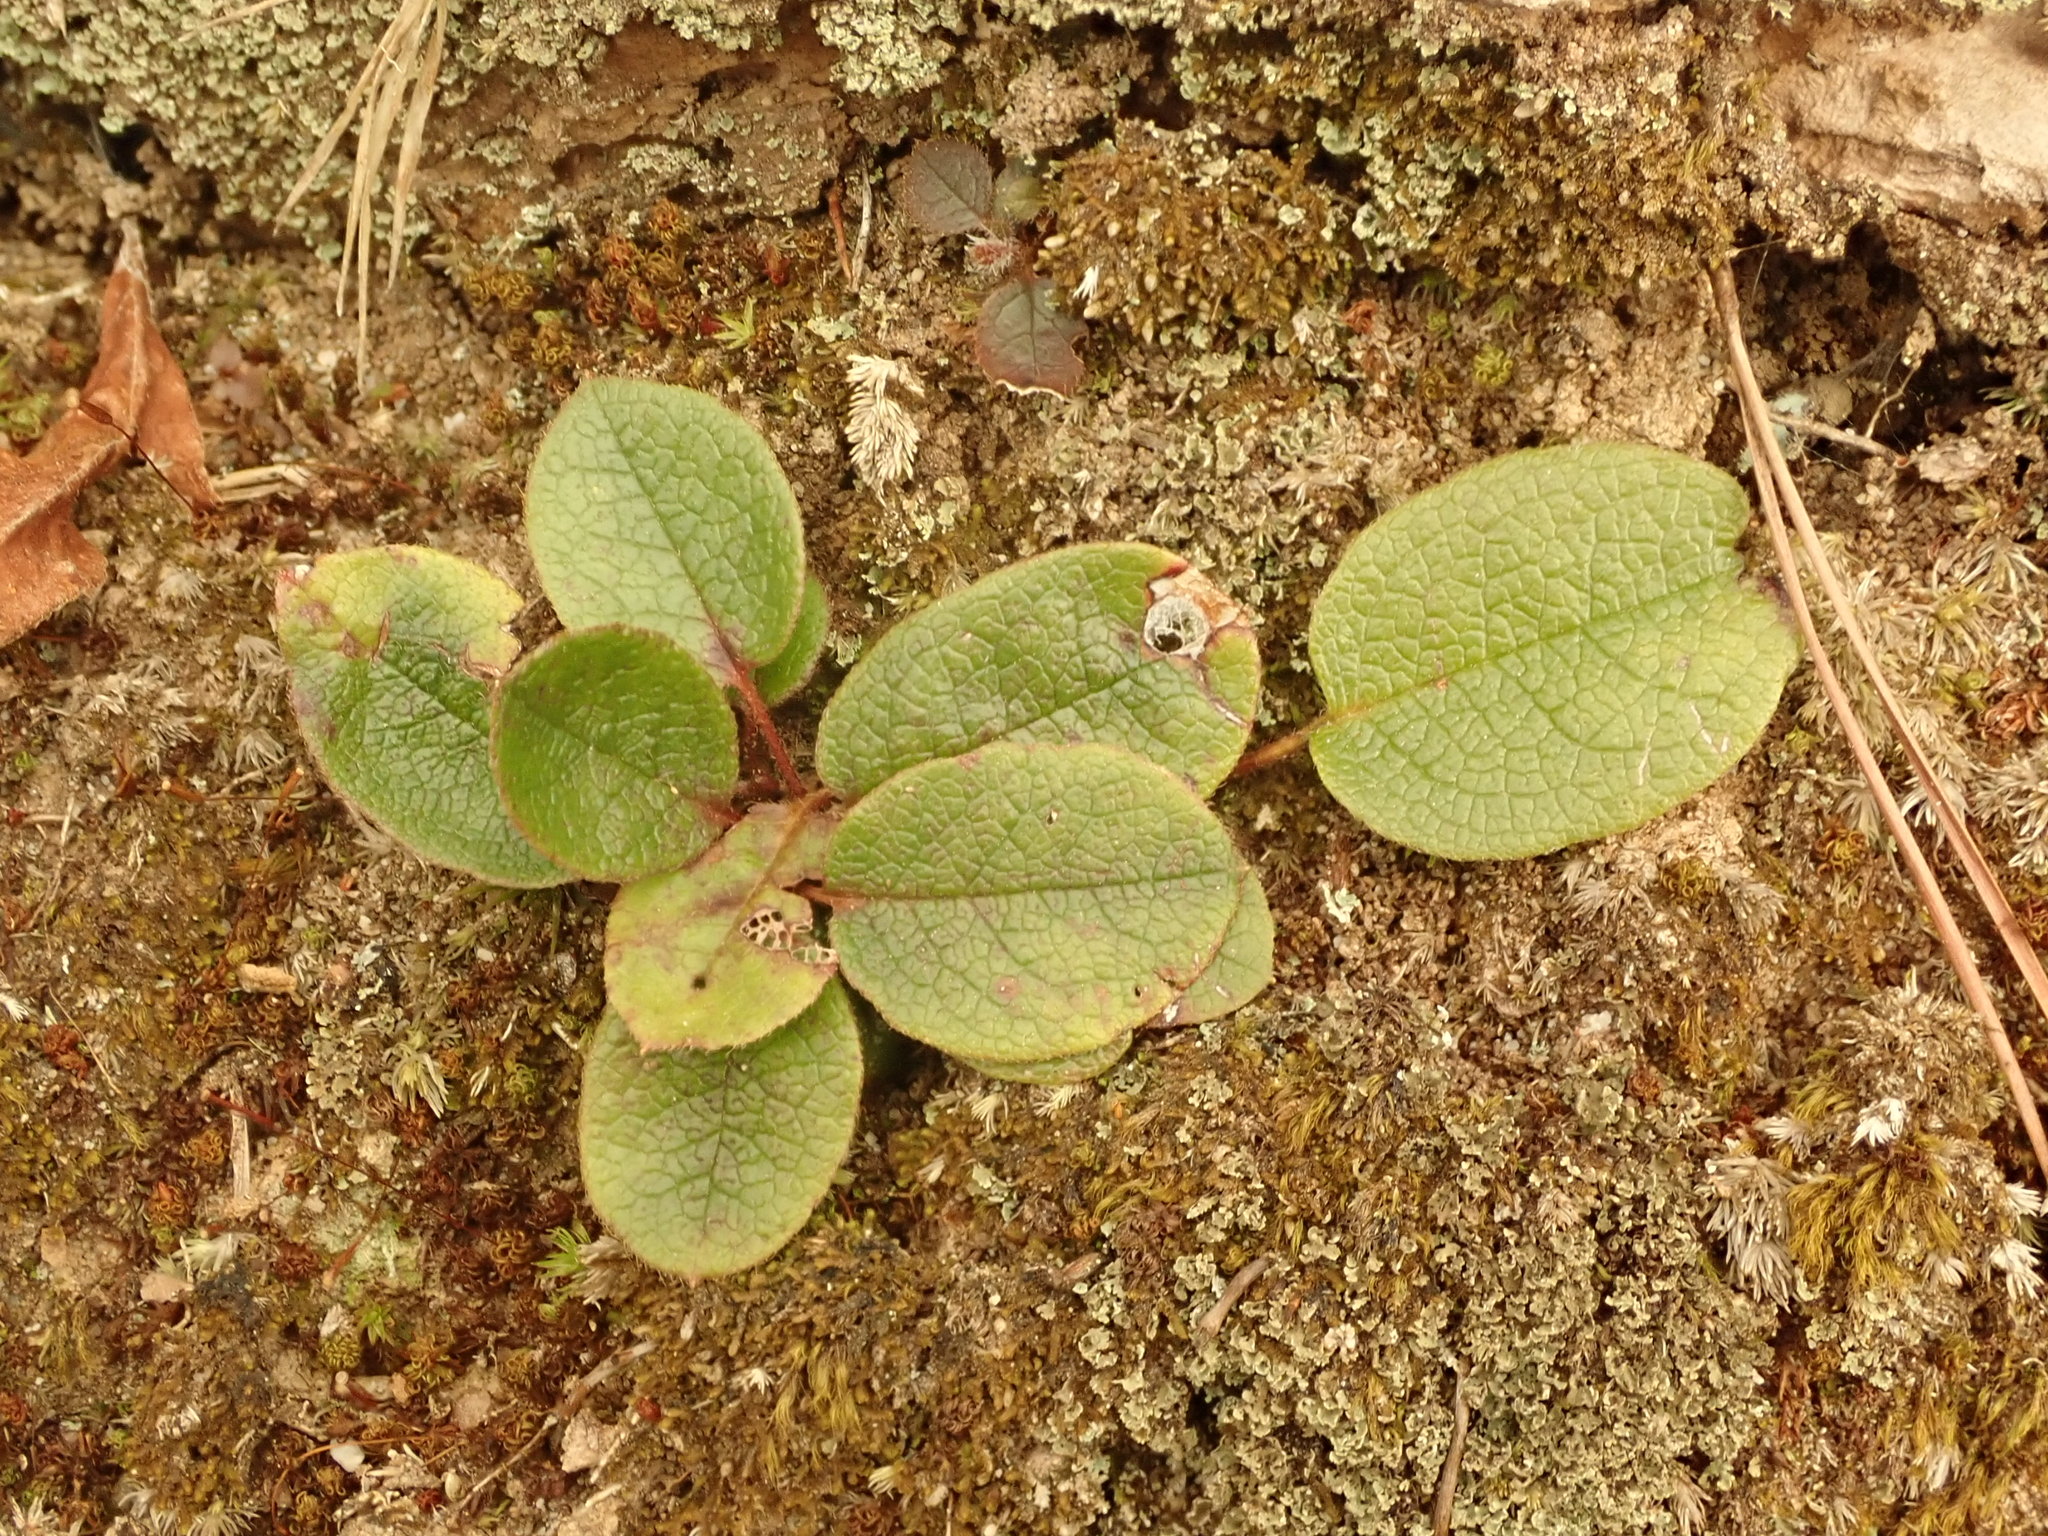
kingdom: Plantae
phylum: Tracheophyta
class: Magnoliopsida
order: Ericales
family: Ericaceae
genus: Epigaea
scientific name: Epigaea repens
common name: Gravelroot
